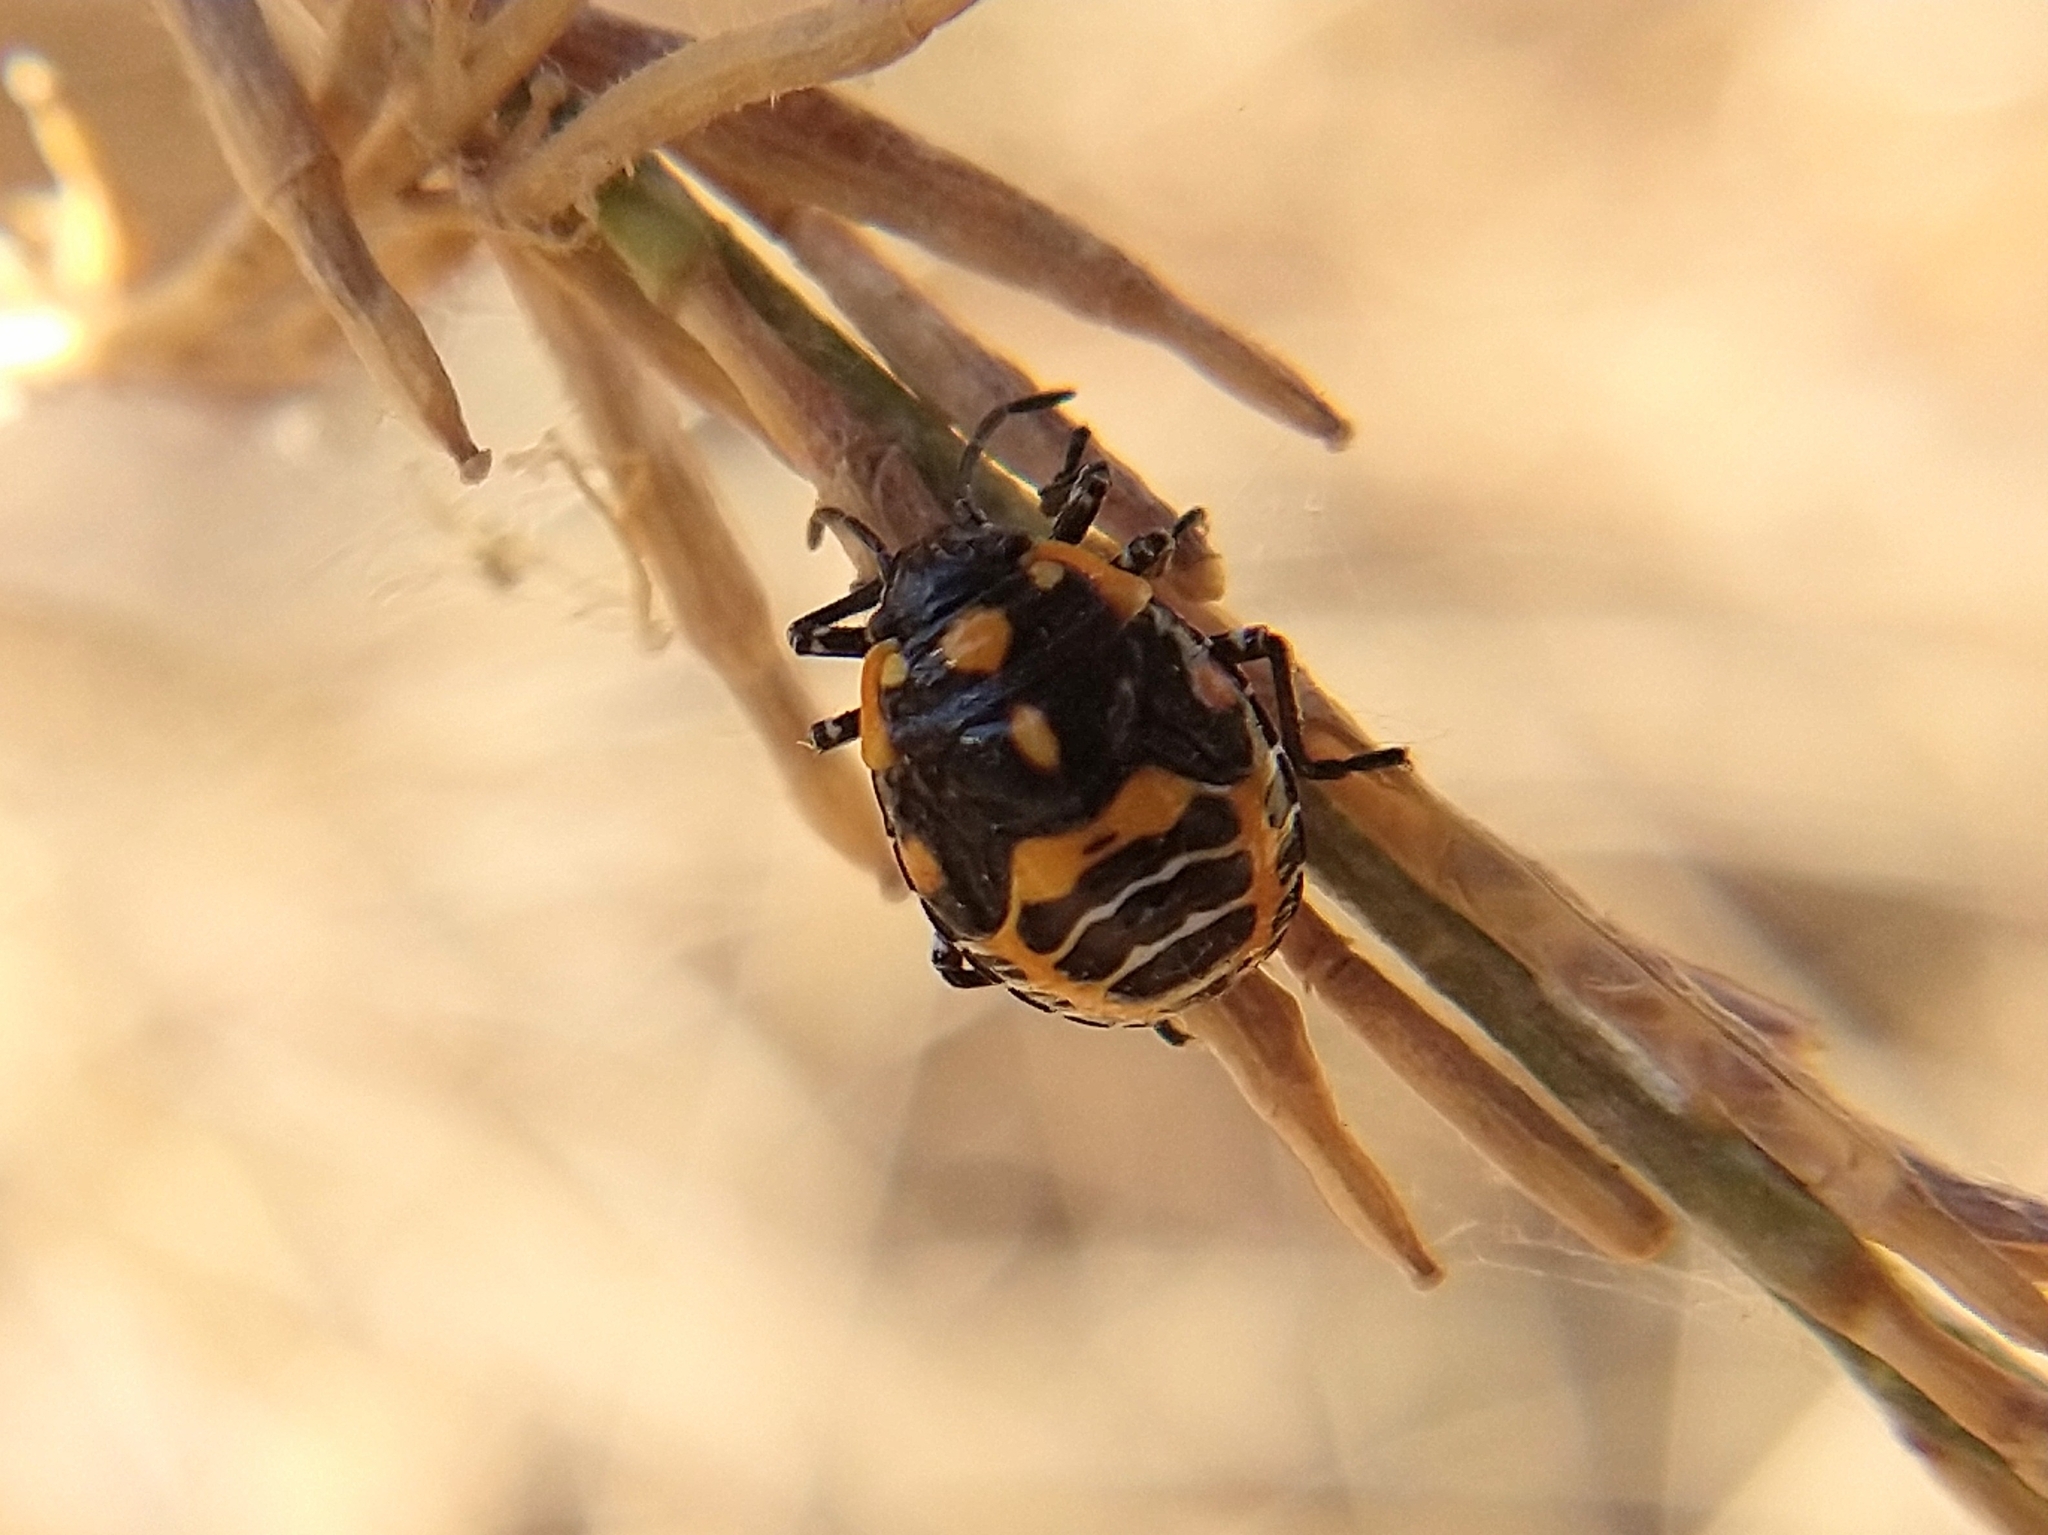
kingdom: Animalia
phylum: Arthropoda
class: Insecta
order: Hemiptera
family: Pentatomidae
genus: Murgantia
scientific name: Murgantia histrionica
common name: Harlequin bug
